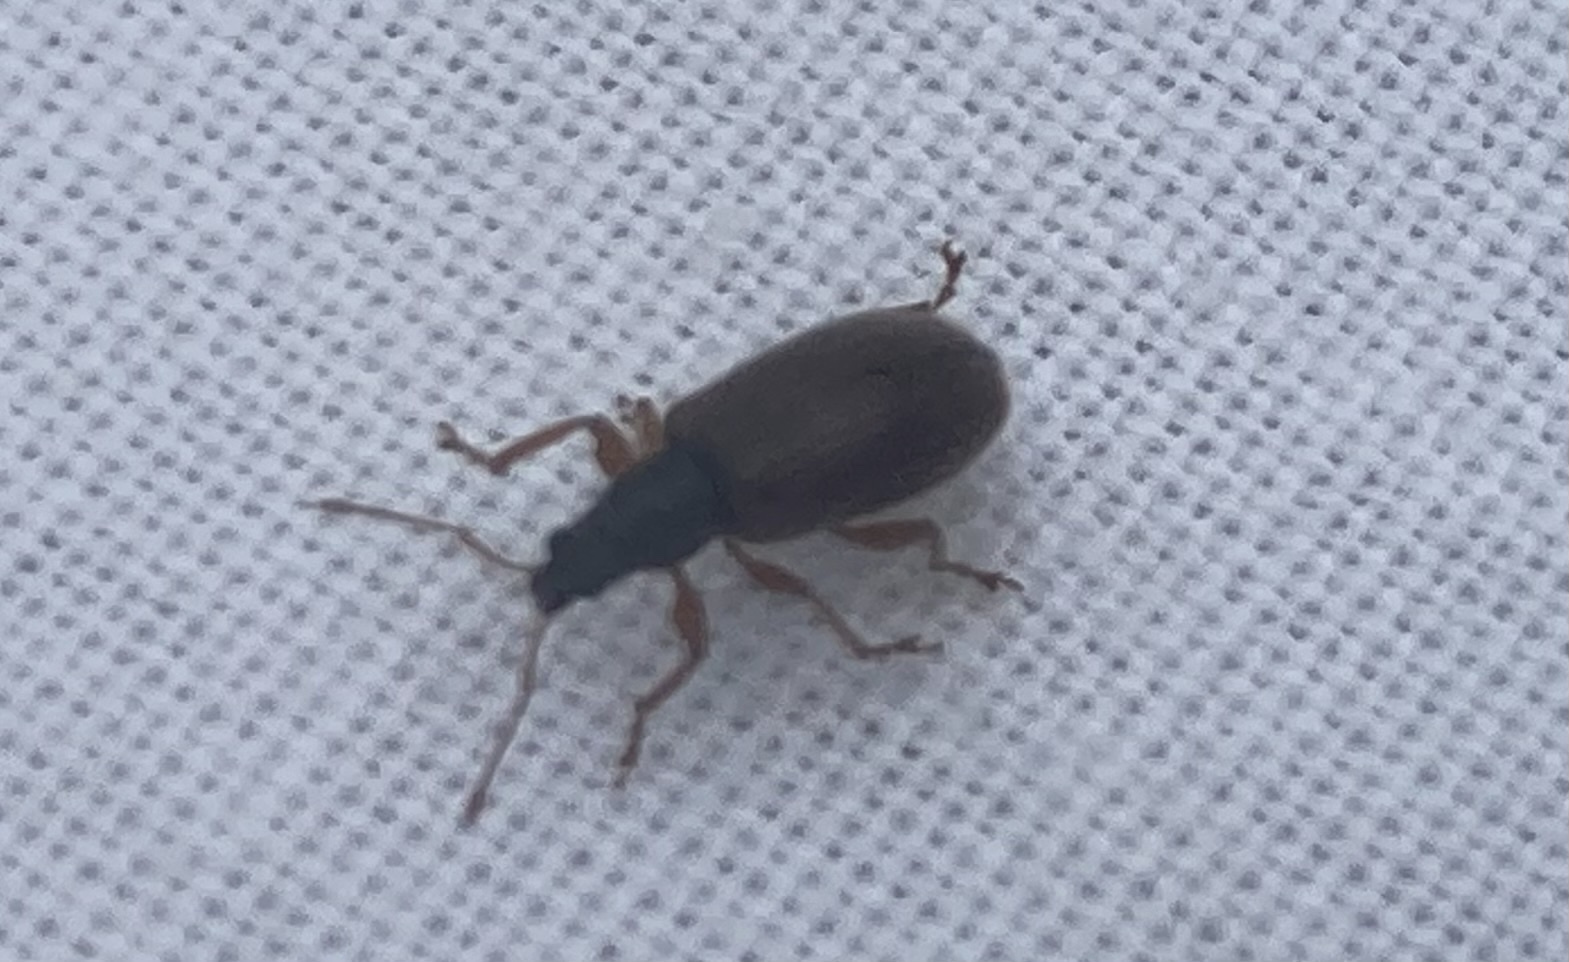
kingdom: Animalia
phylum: Arthropoda
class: Insecta
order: Coleoptera
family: Curculionidae
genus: Phyllobius
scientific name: Phyllobius oblongus
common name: Brown leaf weevil
